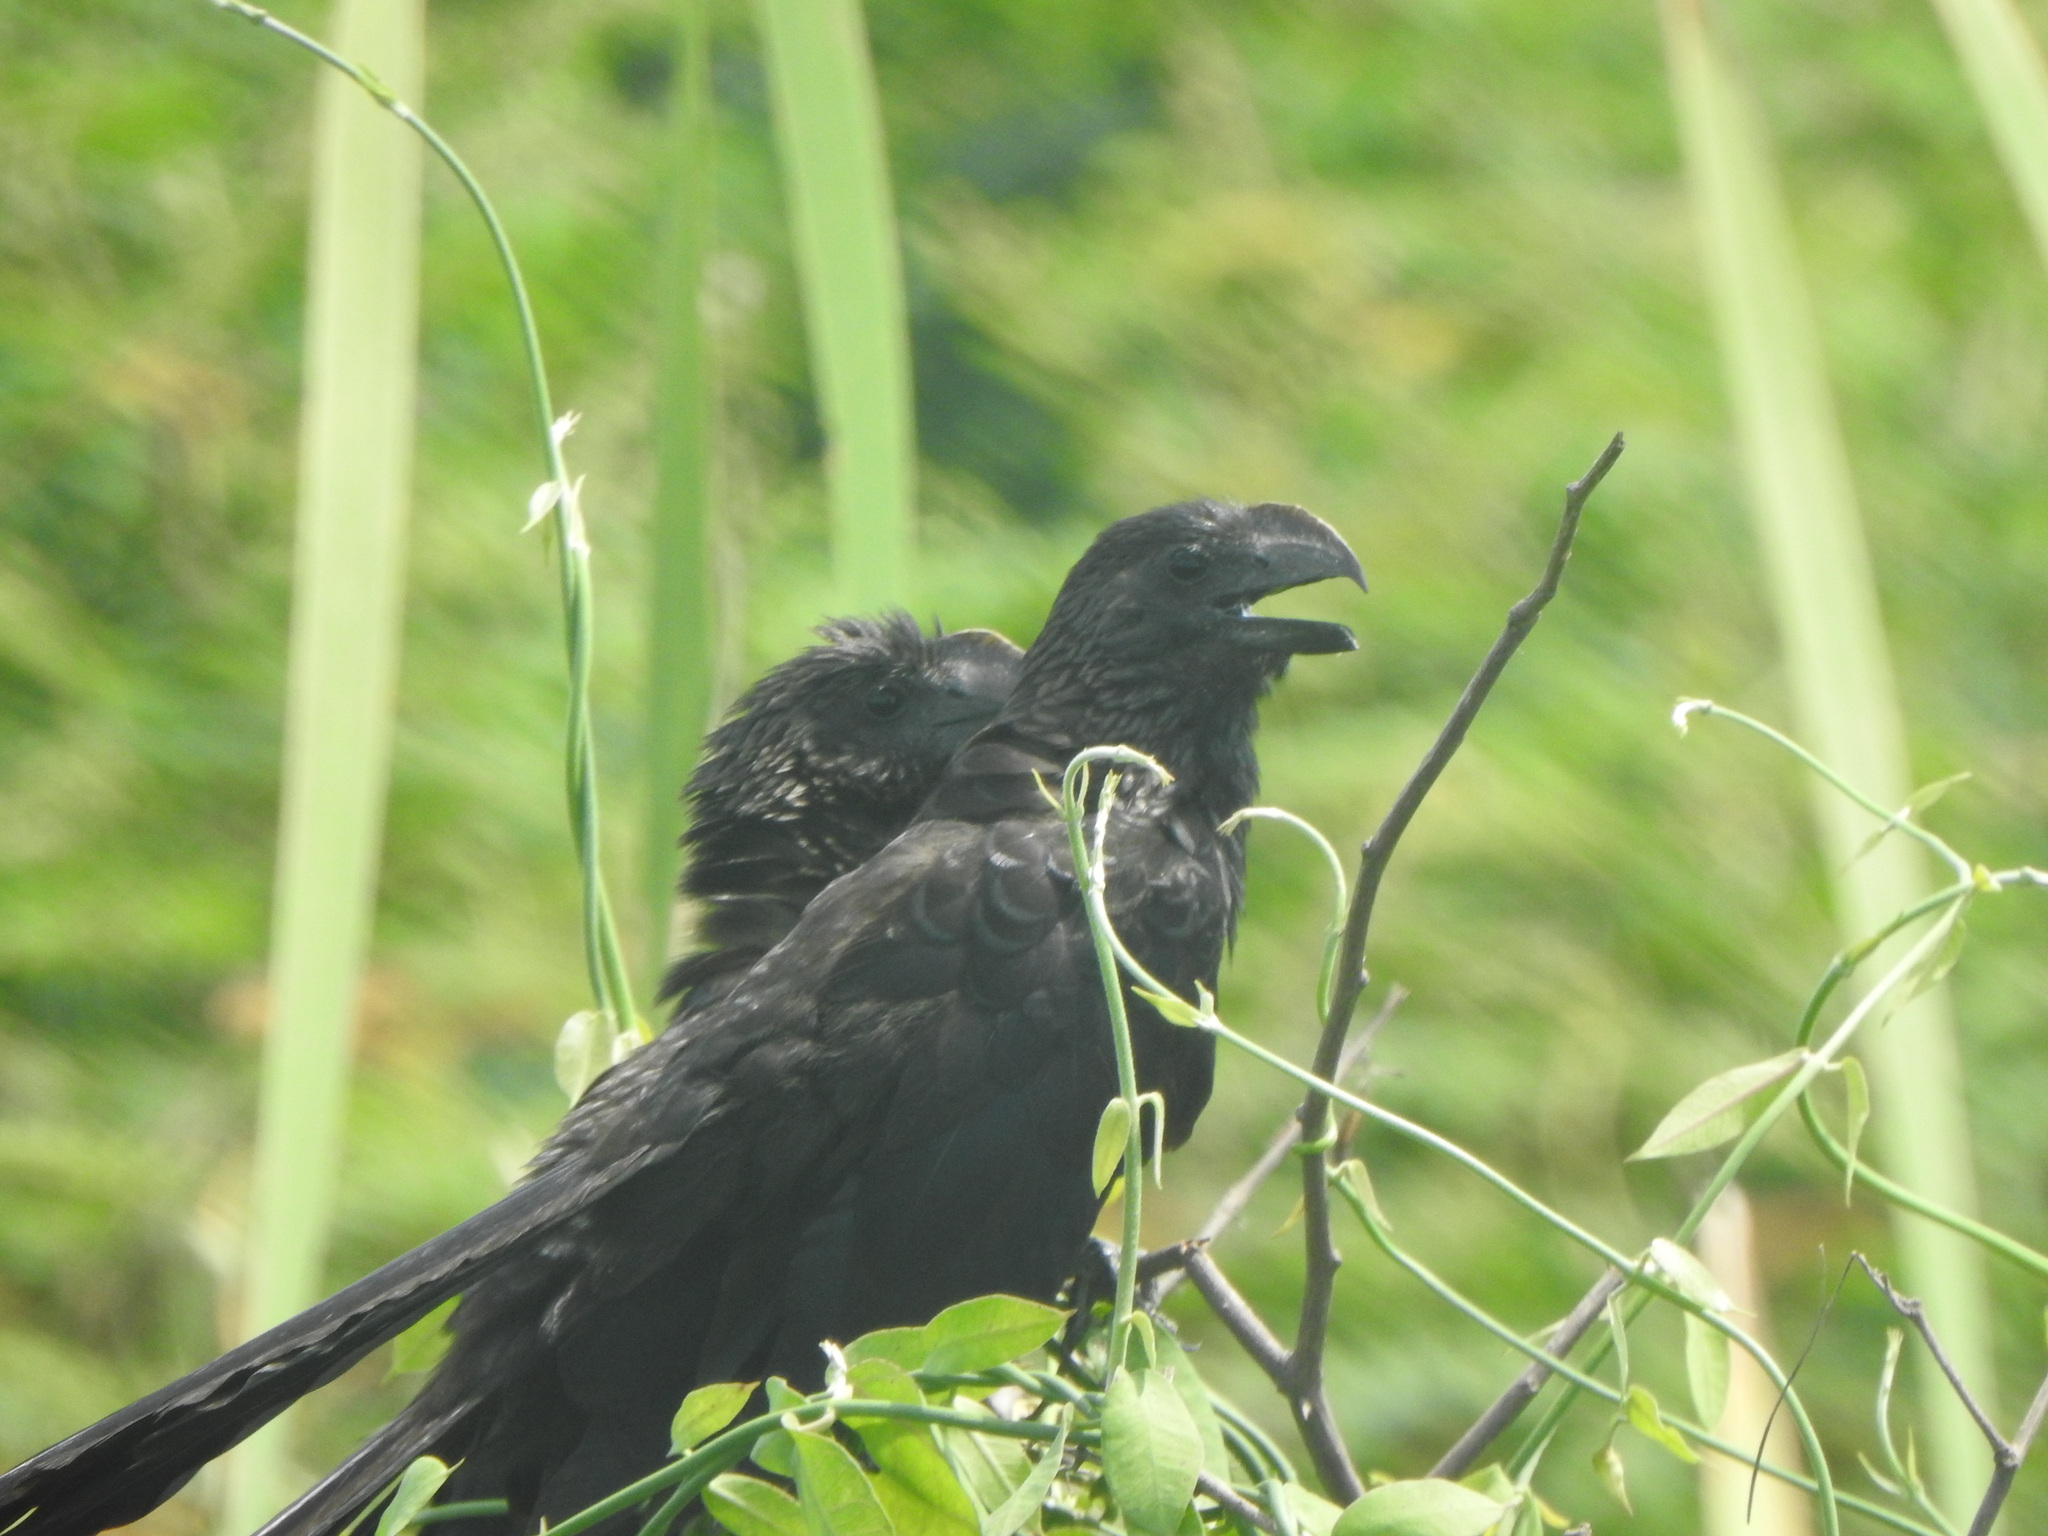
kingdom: Animalia
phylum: Chordata
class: Aves
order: Cuculiformes
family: Cuculidae
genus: Crotophaga
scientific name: Crotophaga ani
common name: Smooth-billed ani
